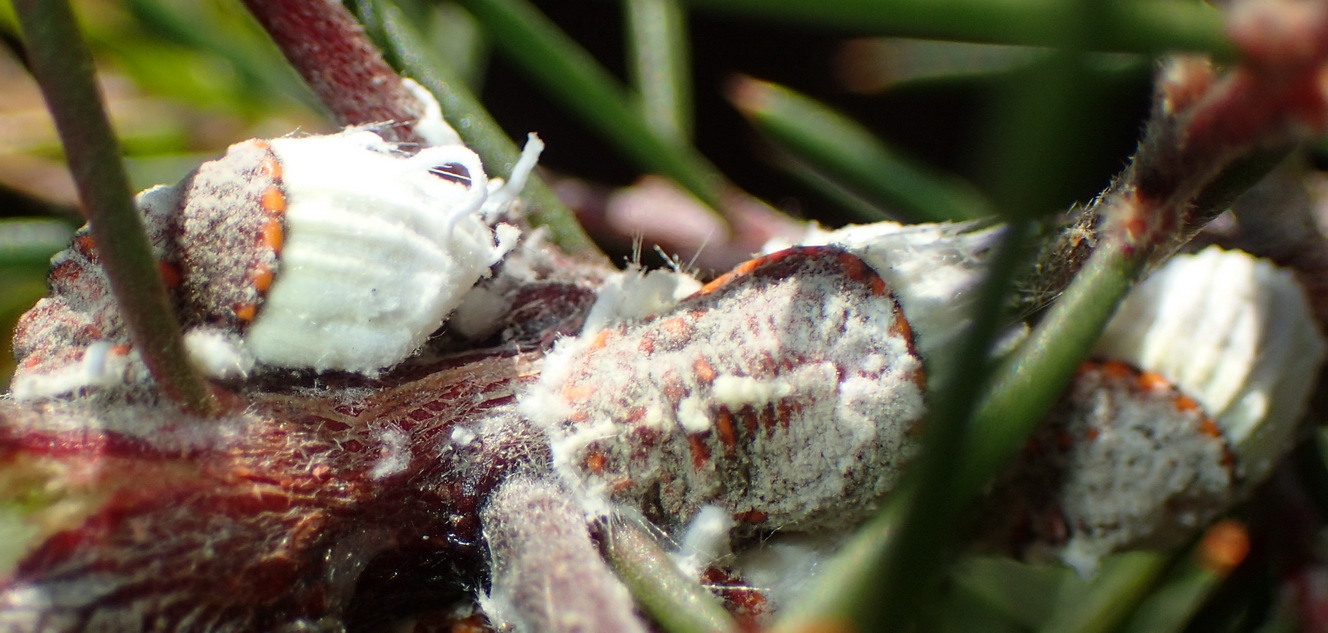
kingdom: Animalia
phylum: Arthropoda
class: Insecta
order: Hemiptera
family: Margarodidae
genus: Icerya
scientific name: Icerya purchasi
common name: Cottony cushion scale
